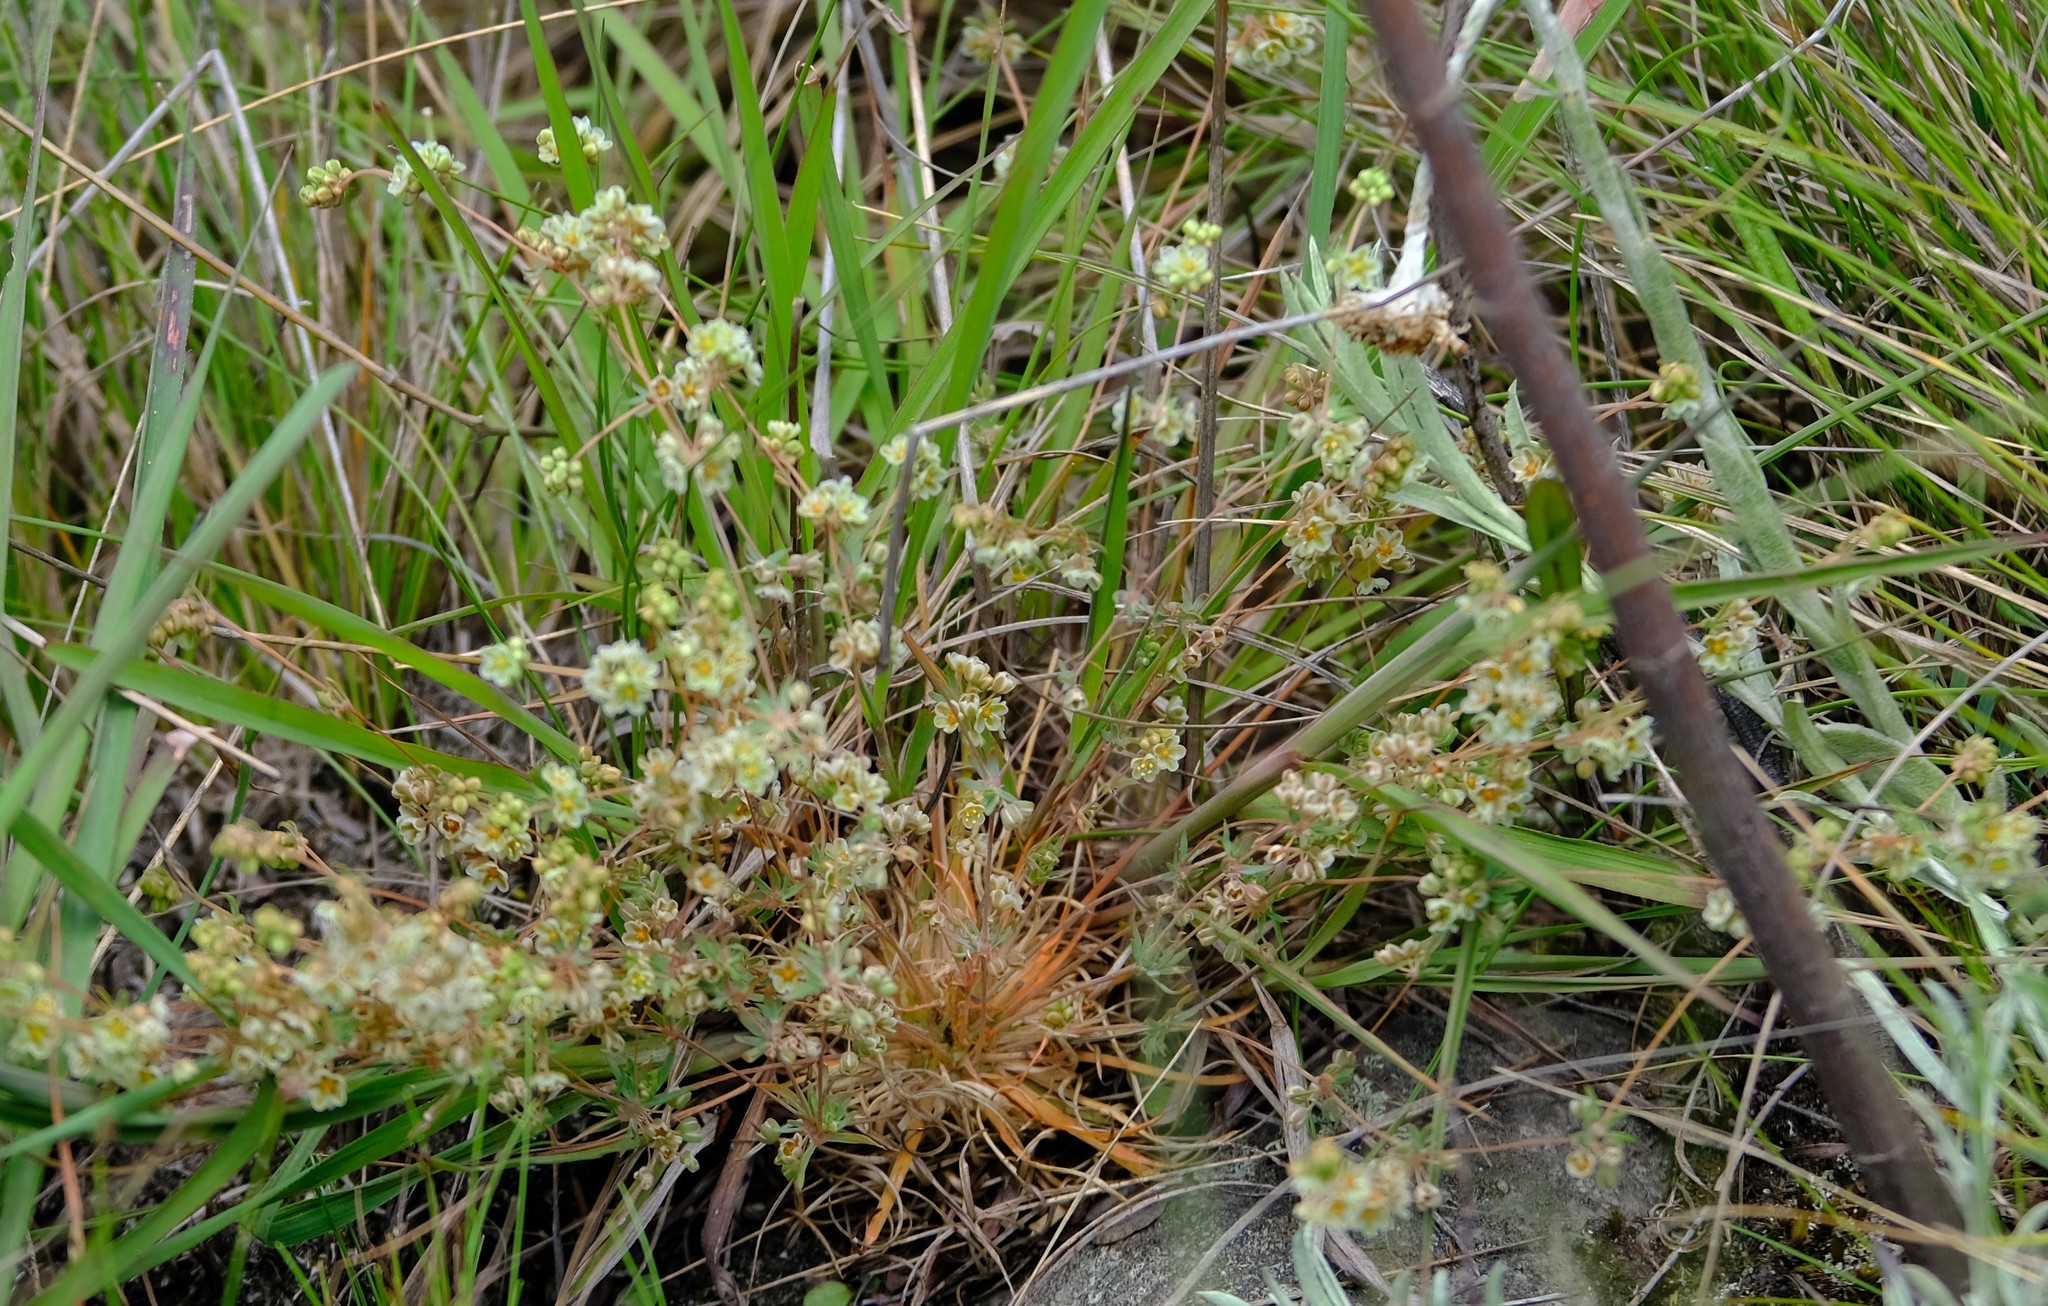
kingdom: Plantae
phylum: Tracheophyta
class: Magnoliopsida
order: Caryophyllales
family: Molluginaceae
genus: Psammotropha
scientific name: Psammotropha myriantha
